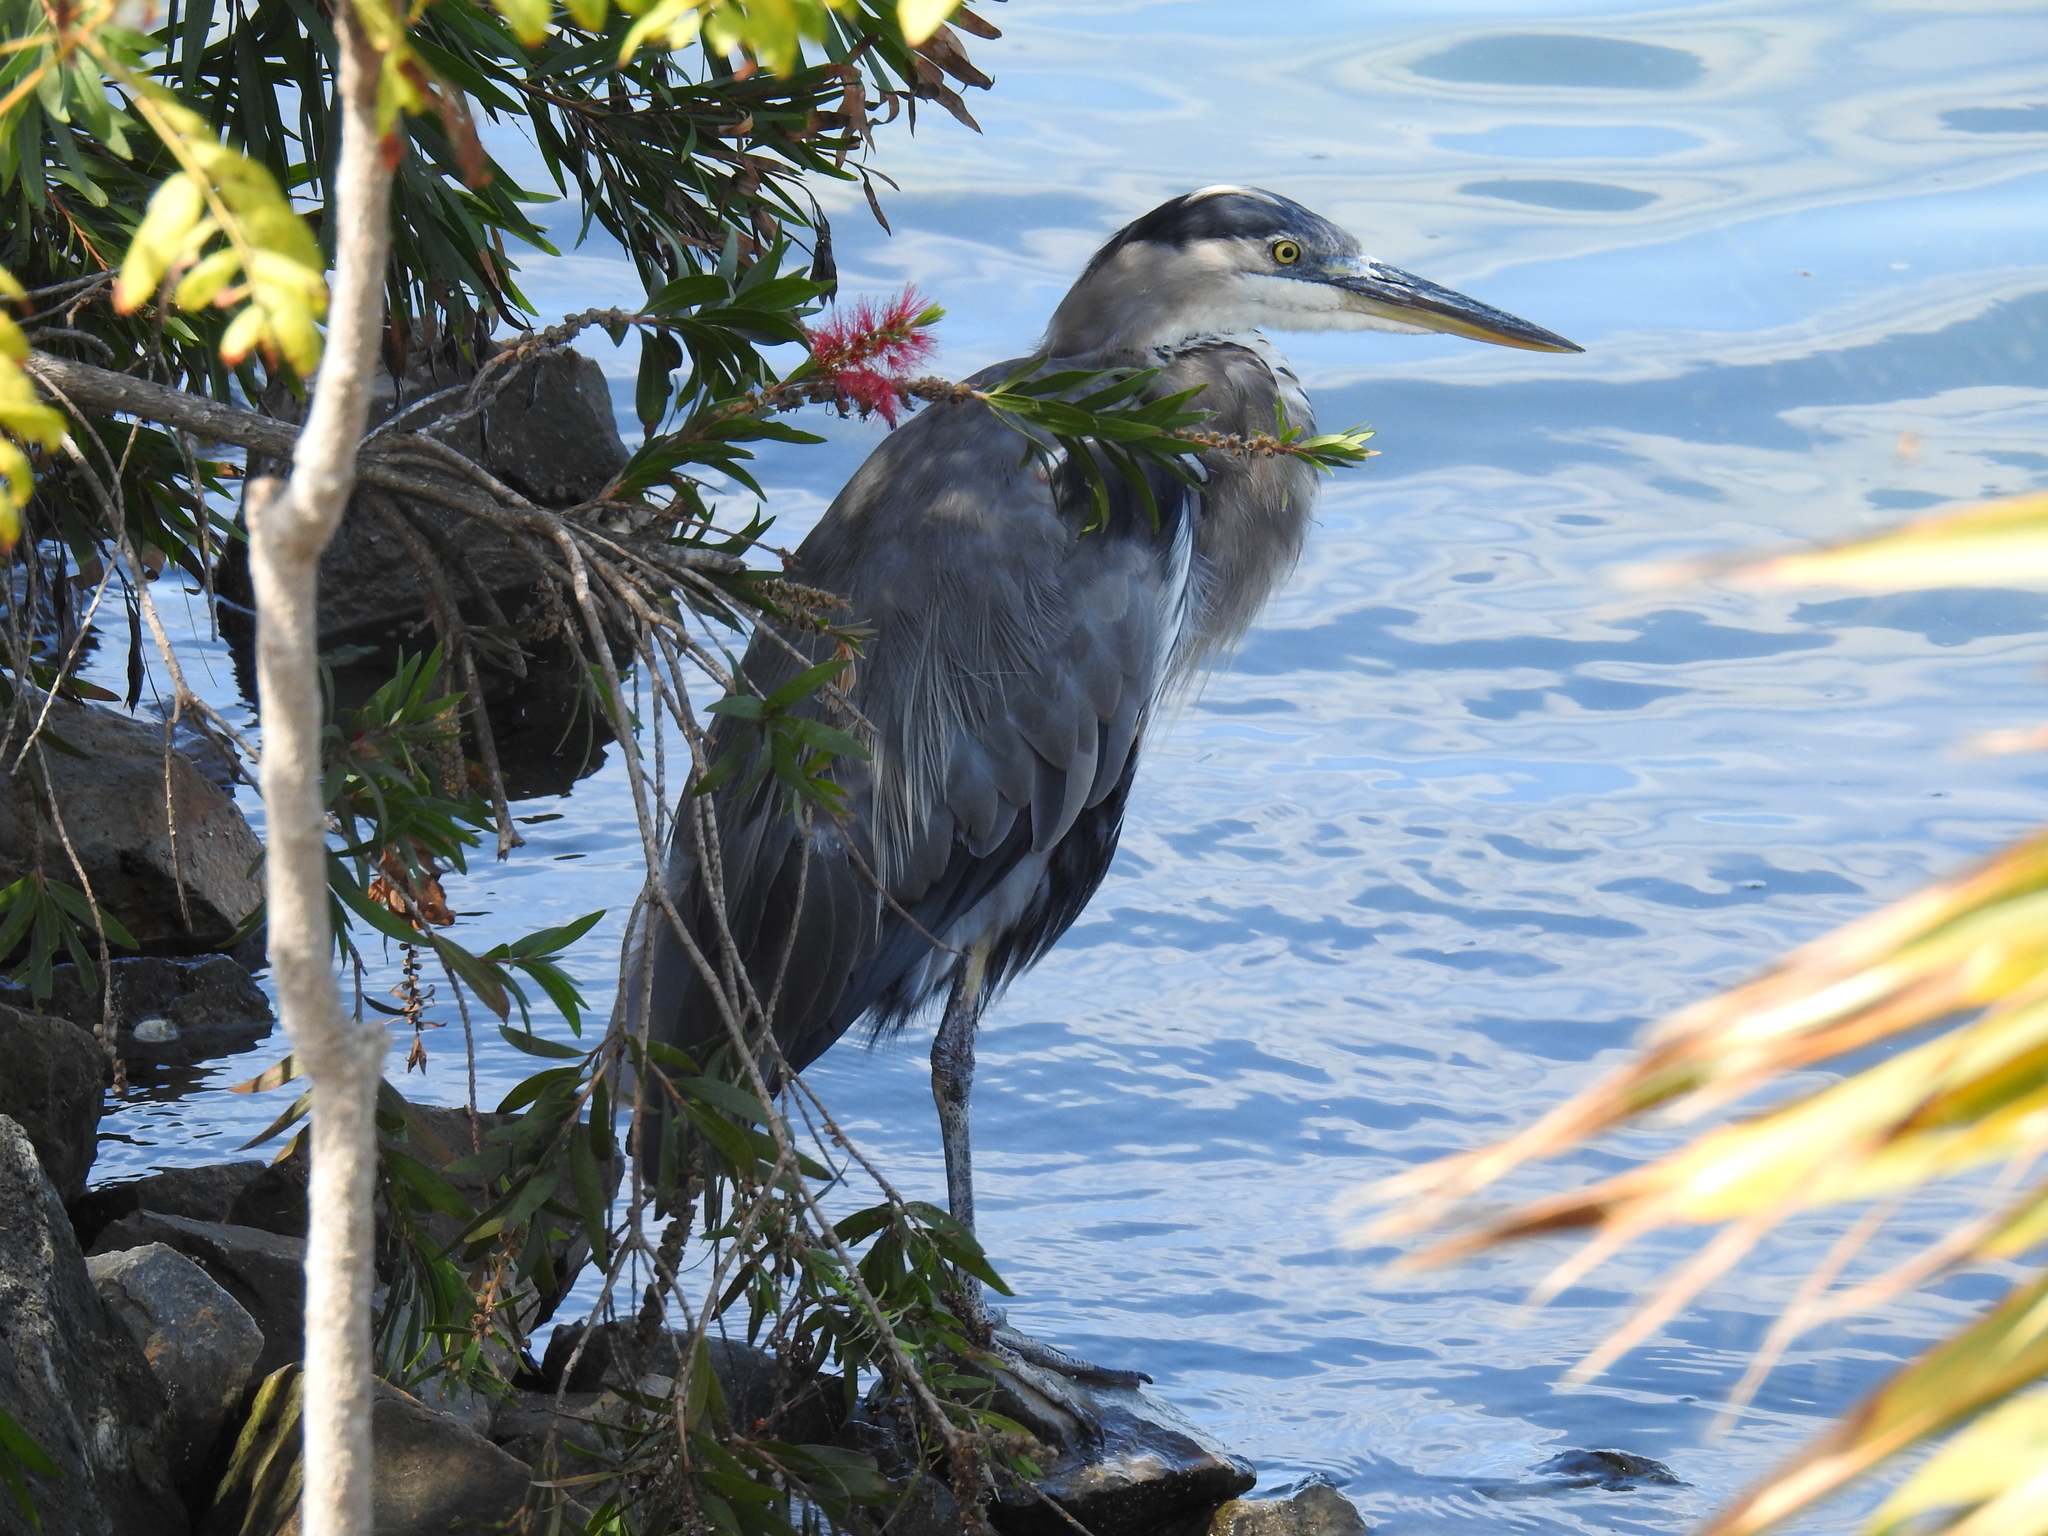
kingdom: Animalia
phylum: Chordata
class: Aves
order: Pelecaniformes
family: Ardeidae
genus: Ardea
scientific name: Ardea herodias
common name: Great blue heron
